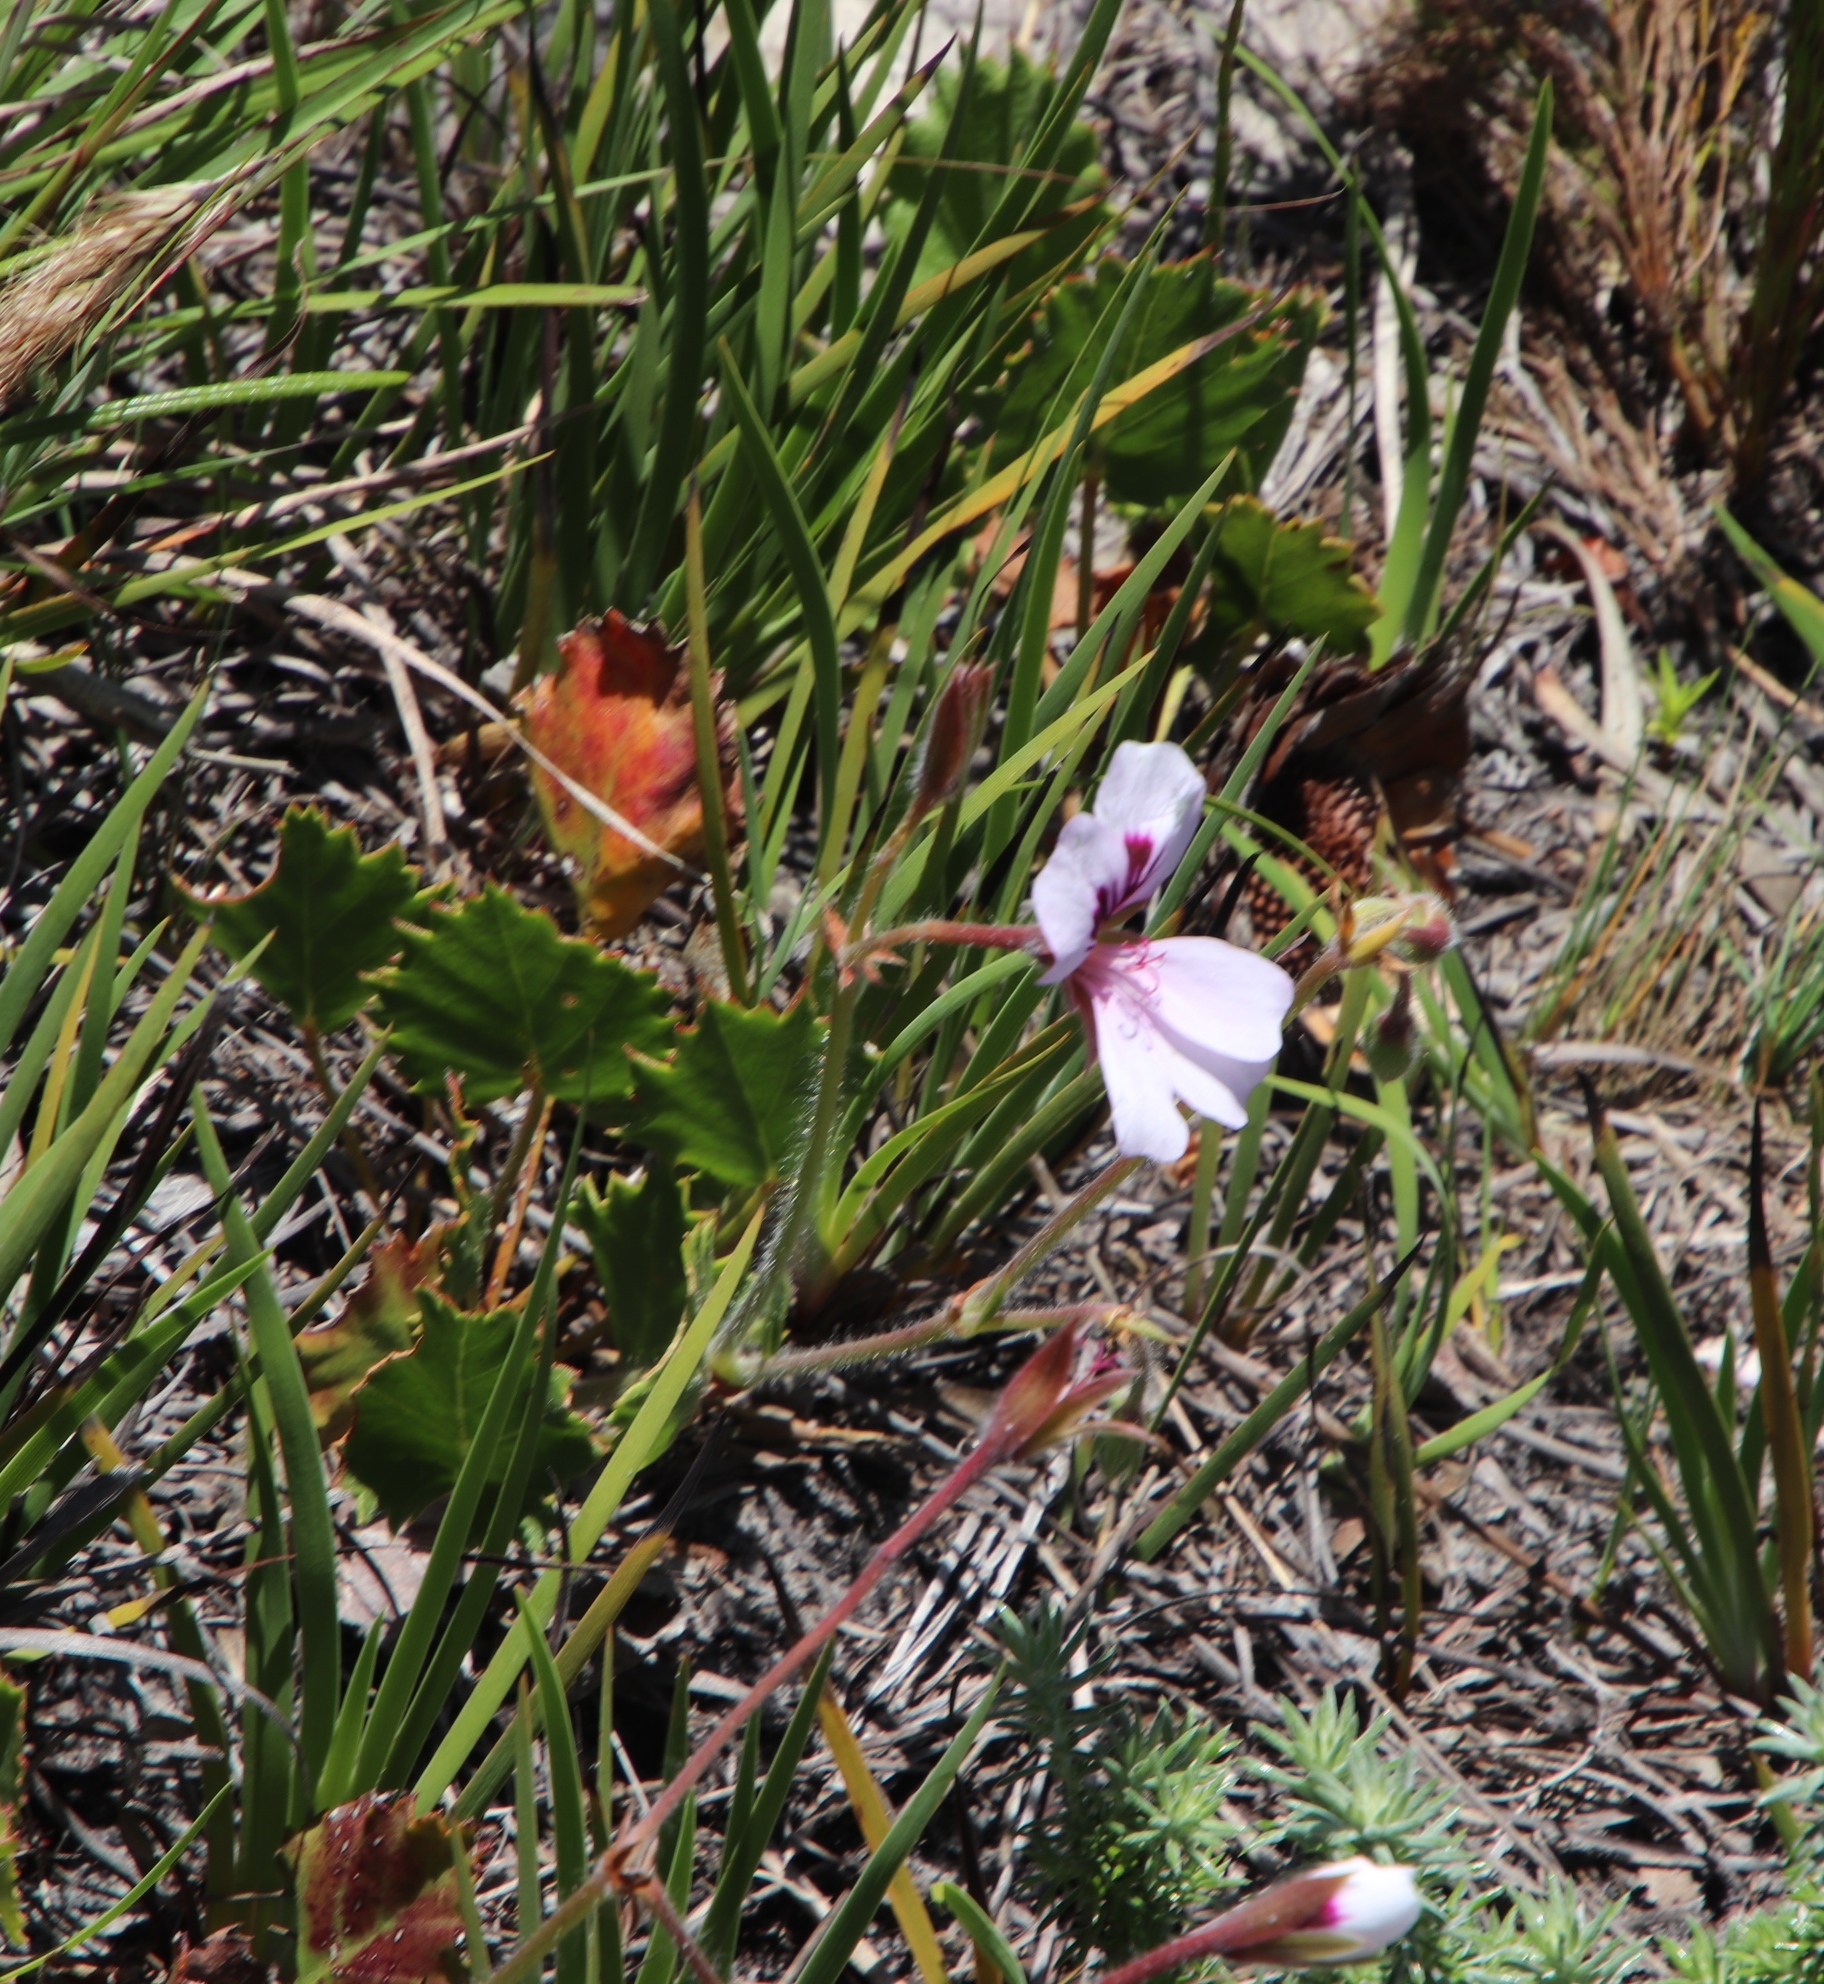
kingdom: Plantae
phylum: Tracheophyta
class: Magnoliopsida
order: Geraniales
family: Geraniaceae
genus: Pelargonium
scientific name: Pelargonium elegans
